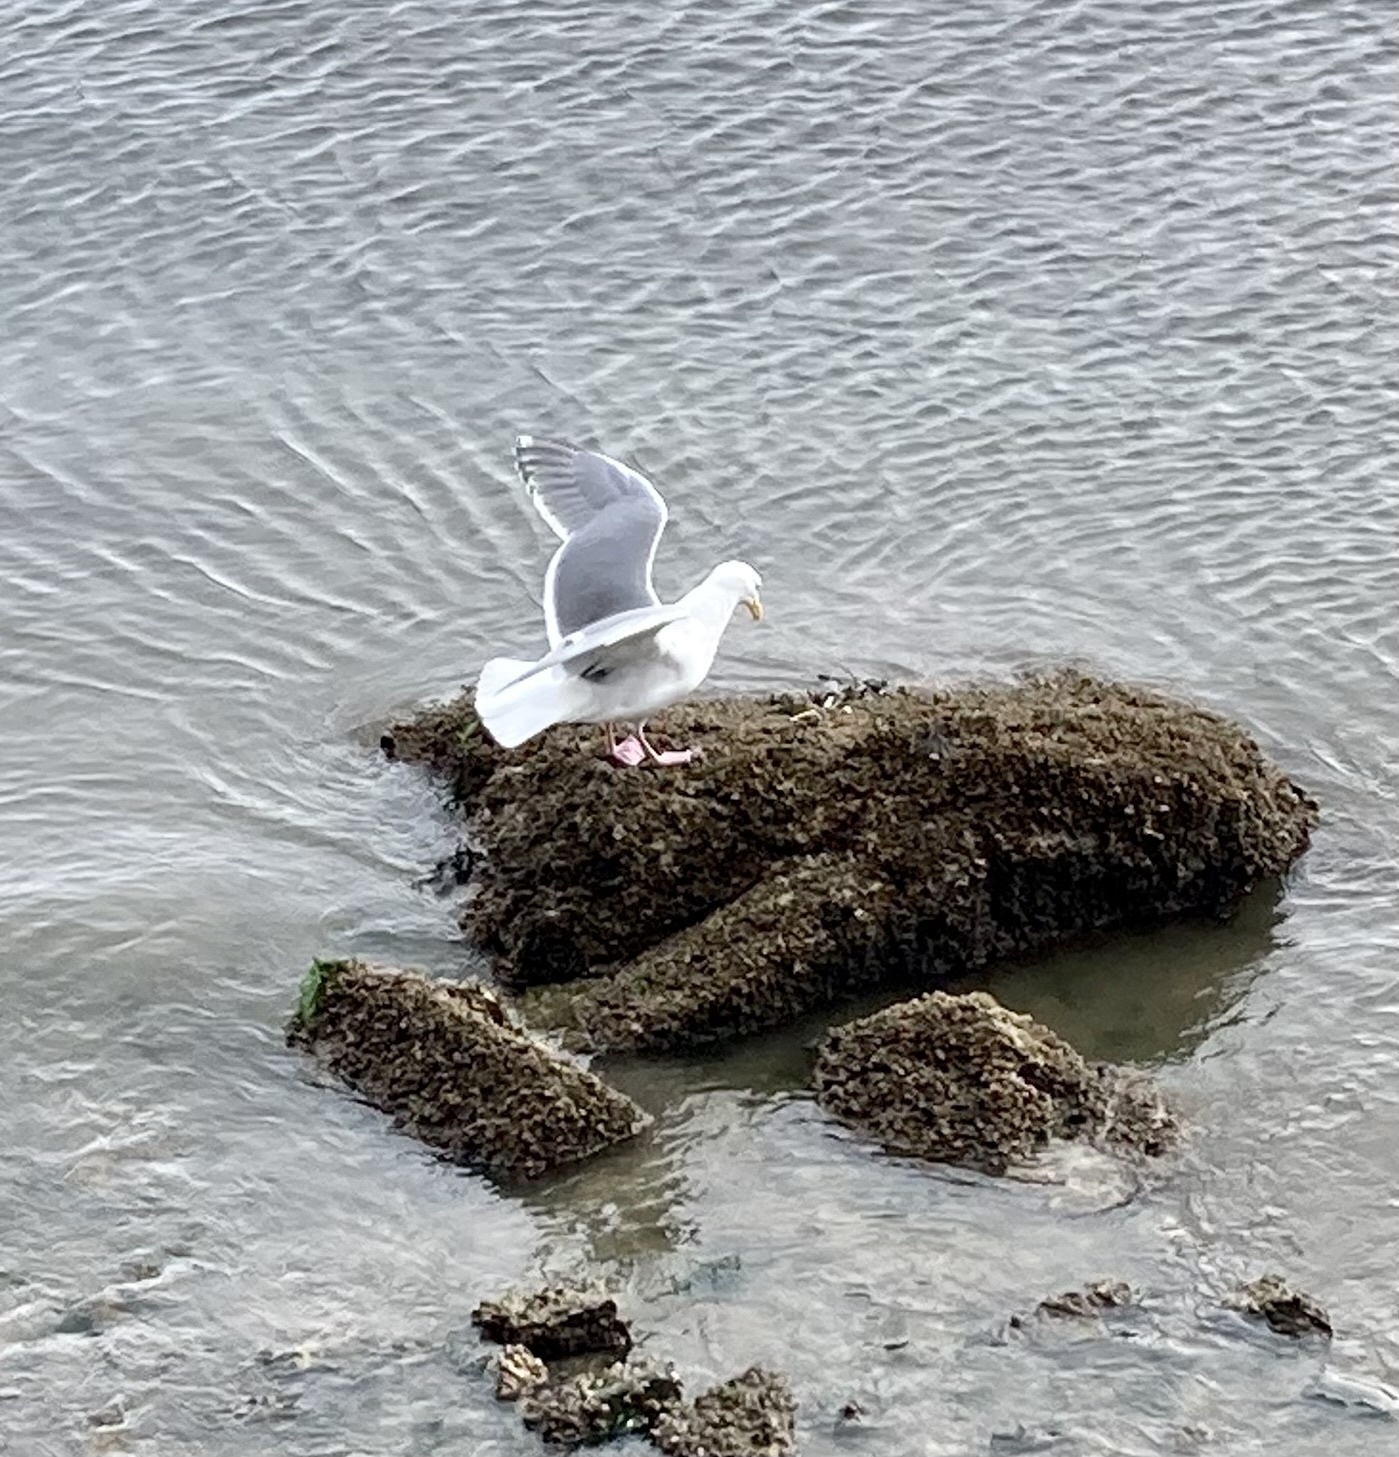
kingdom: Animalia
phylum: Chordata
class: Aves
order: Charadriiformes
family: Laridae
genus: Larus
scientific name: Larus glaucescens
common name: Glaucous-winged gull
